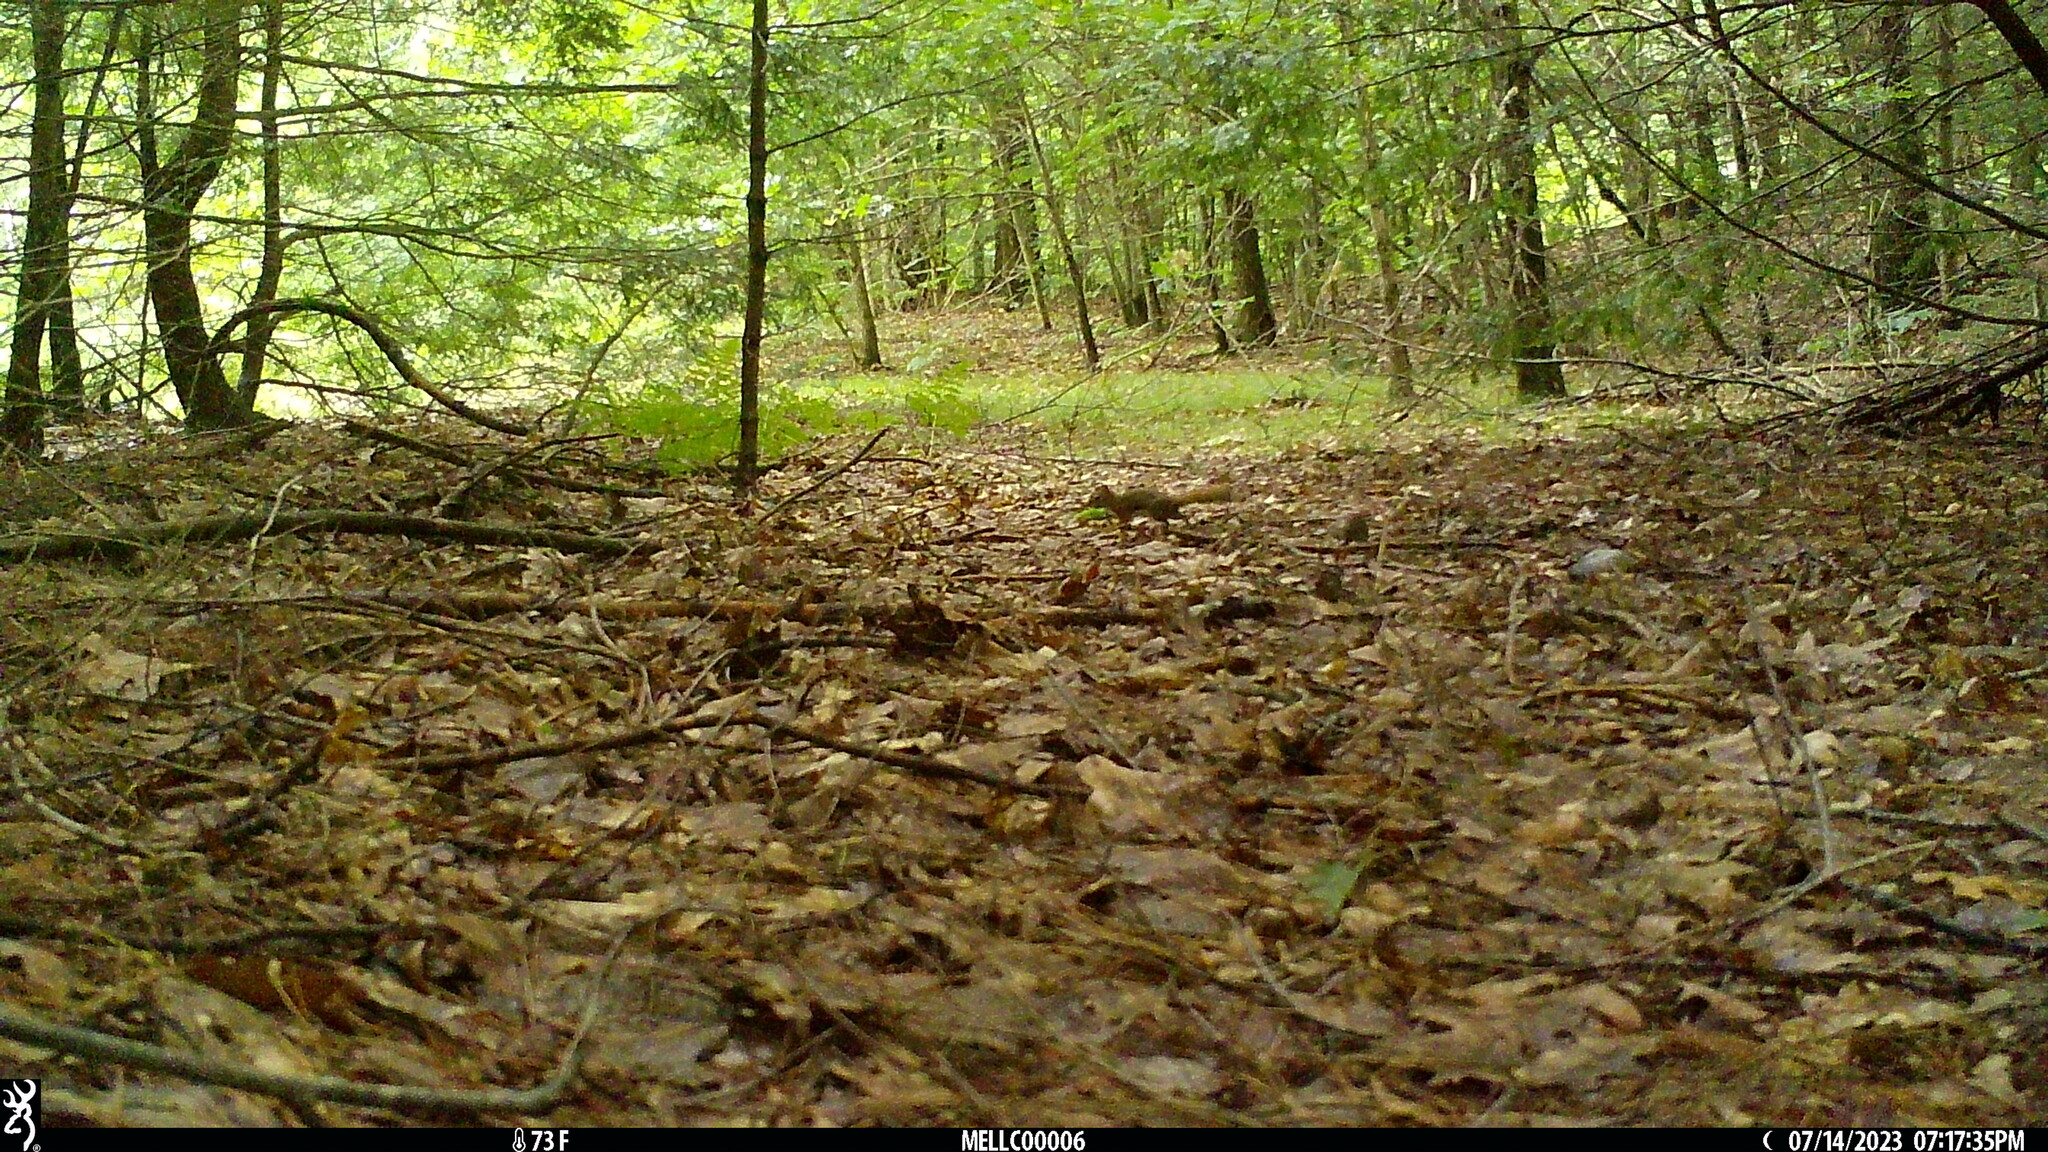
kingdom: Animalia
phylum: Chordata
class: Mammalia
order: Rodentia
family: Sciuridae
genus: Tamiasciurus
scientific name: Tamiasciurus hudsonicus
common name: Red squirrel
